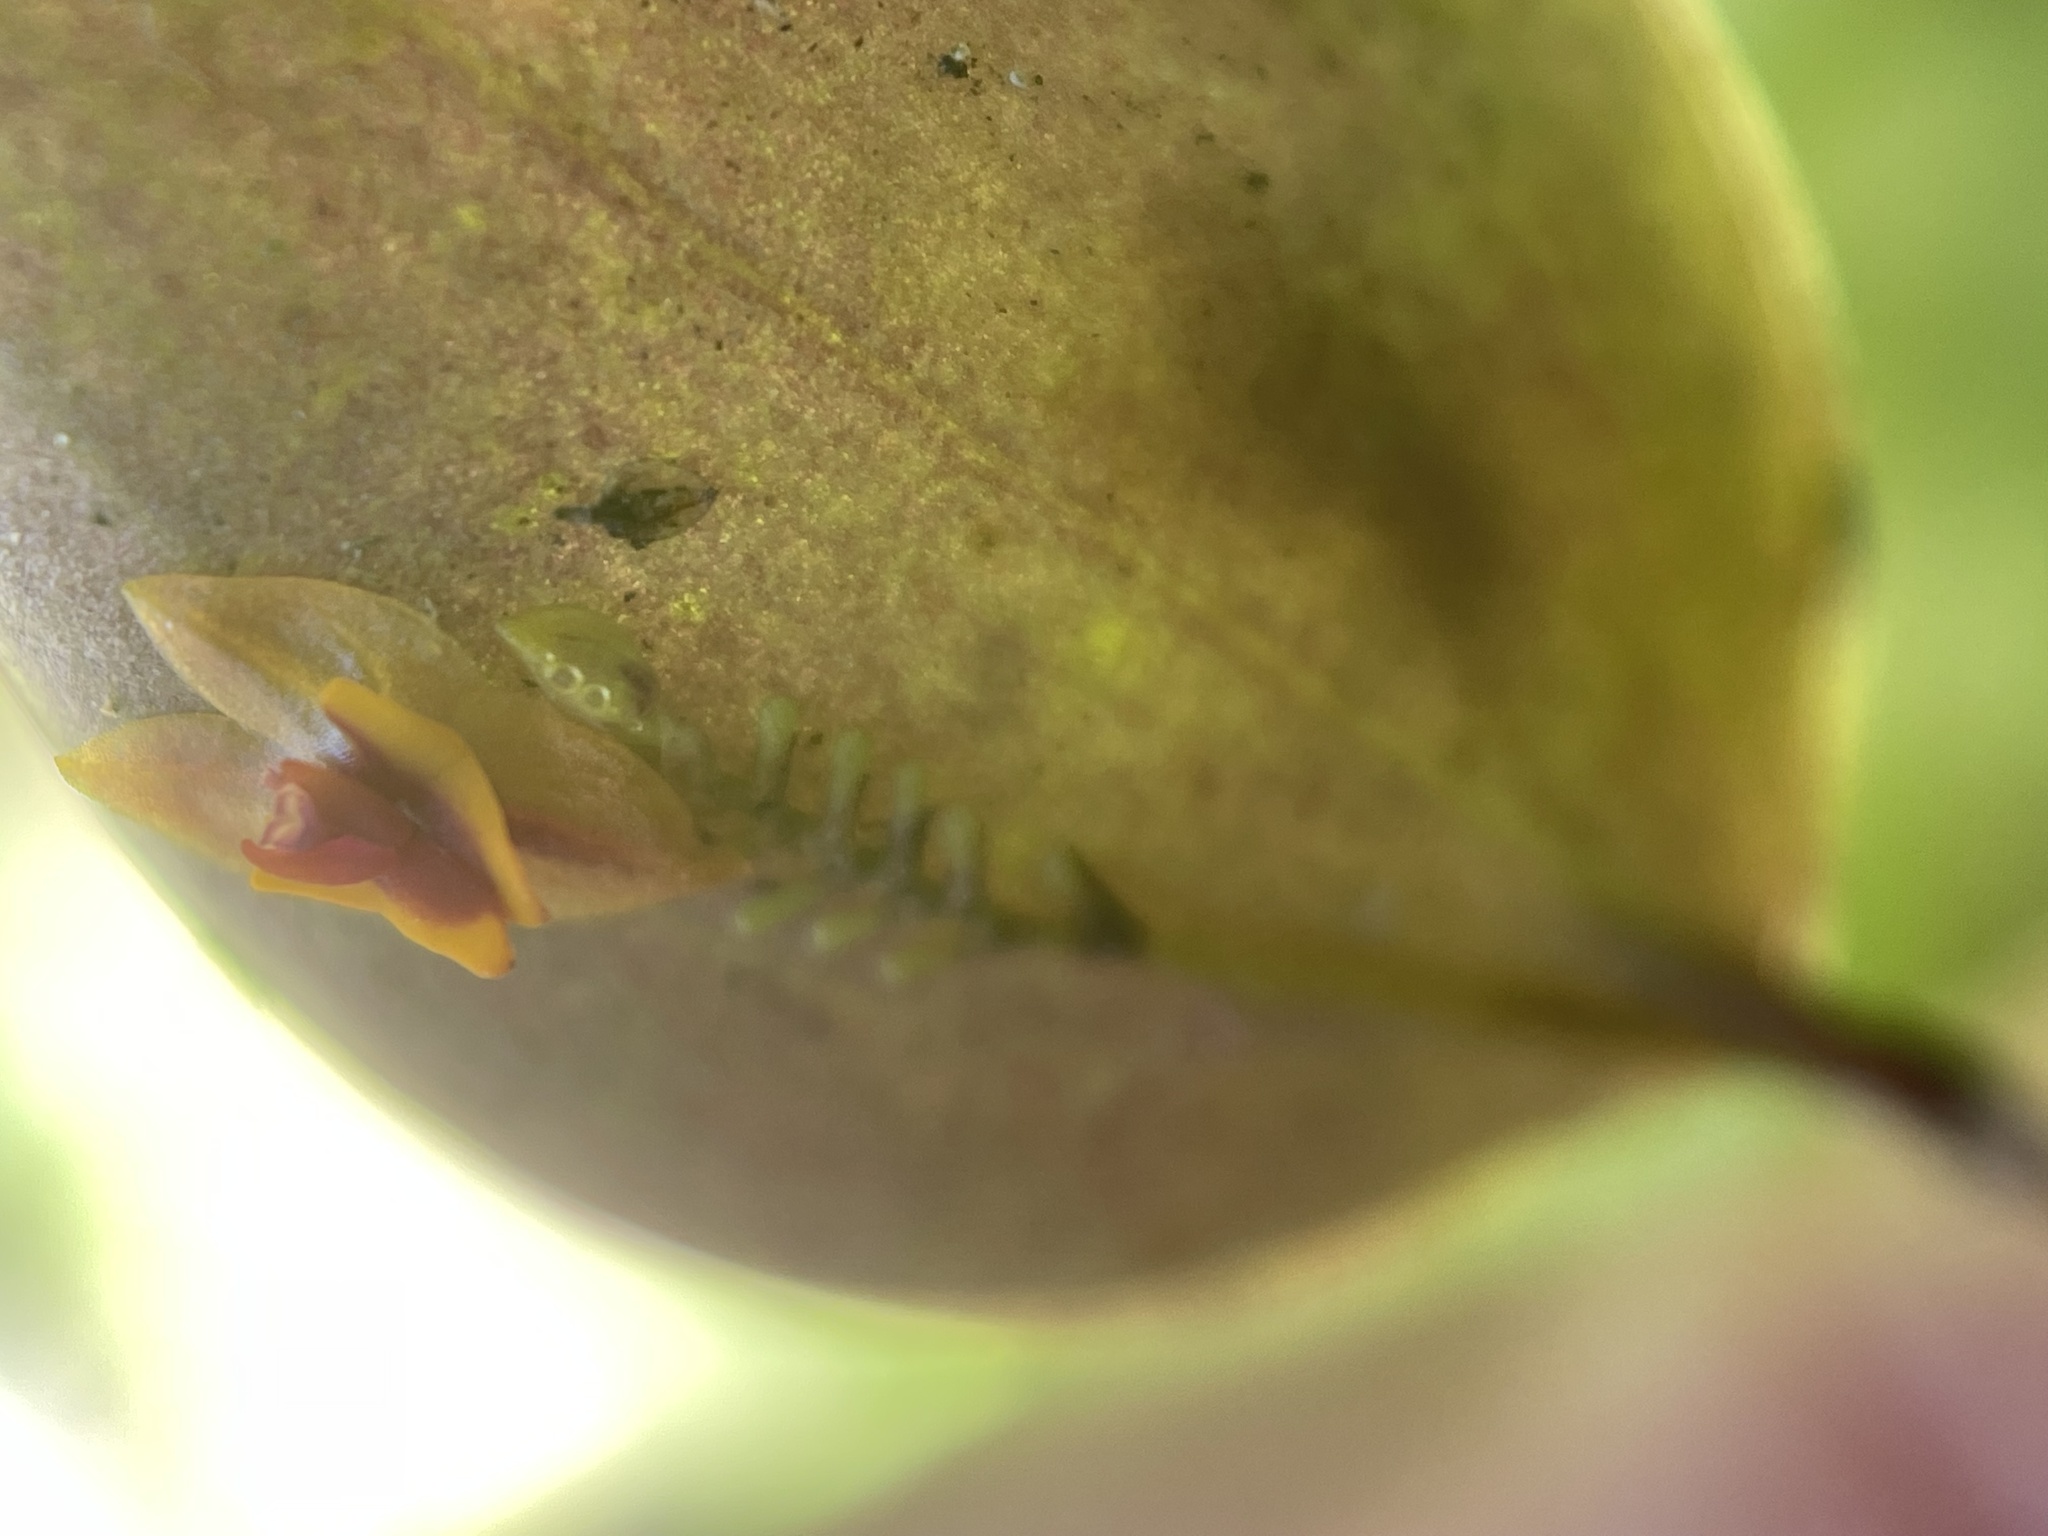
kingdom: Plantae
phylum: Tracheophyta
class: Liliopsida
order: Asparagales
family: Orchidaceae
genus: Lepanthes
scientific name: Lepanthes woodburyana
